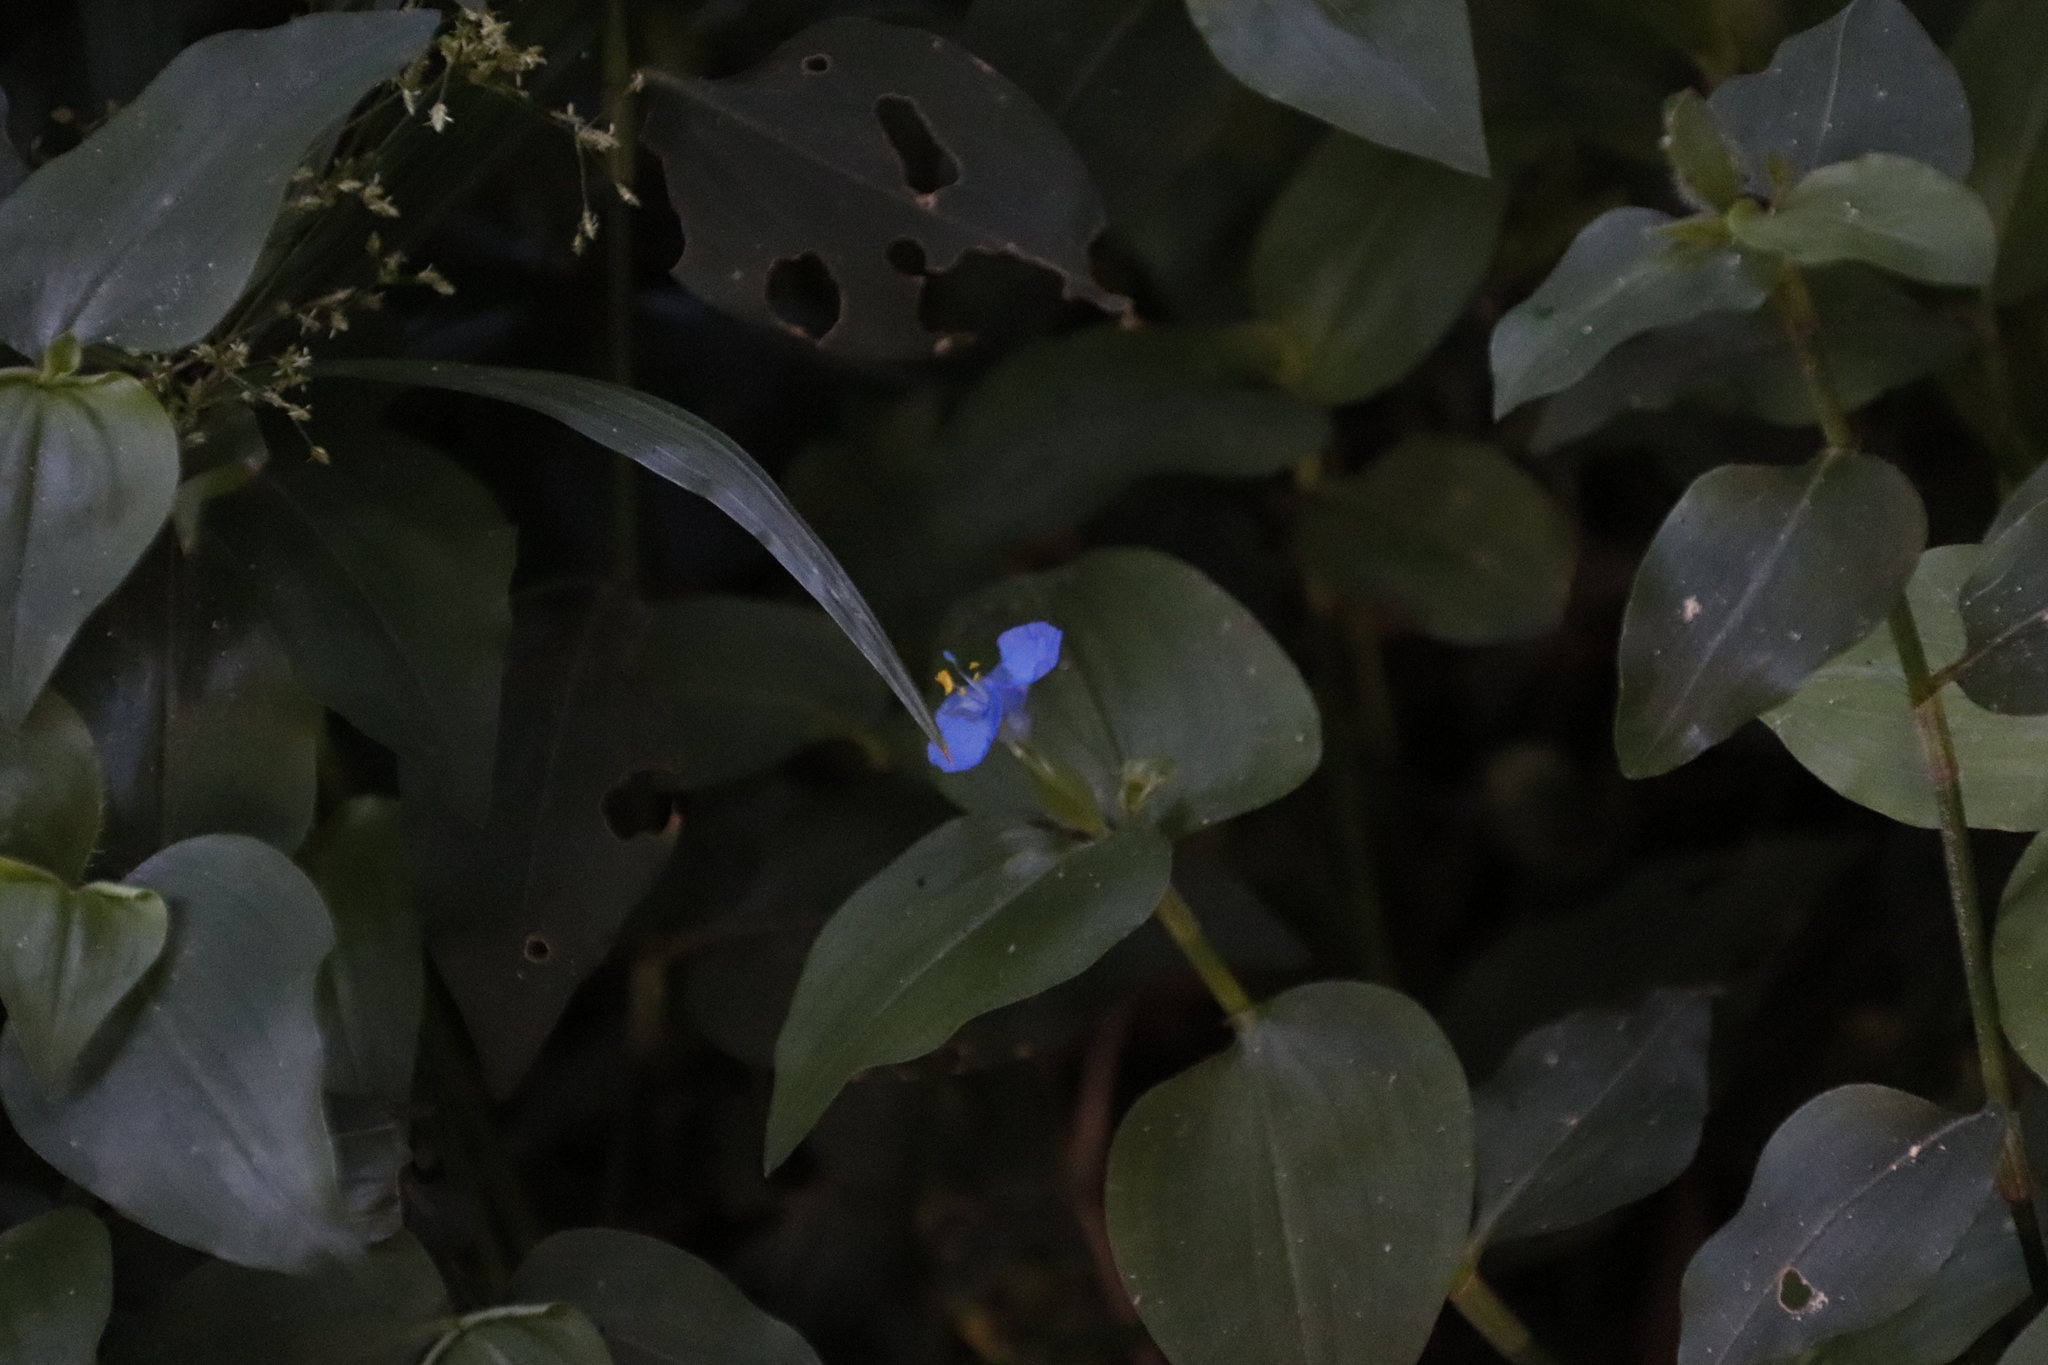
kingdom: Plantae
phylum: Tracheophyta
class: Liliopsida
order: Commelinales
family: Commelinaceae
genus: Commelina
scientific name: Commelina benghalensis
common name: Jio
